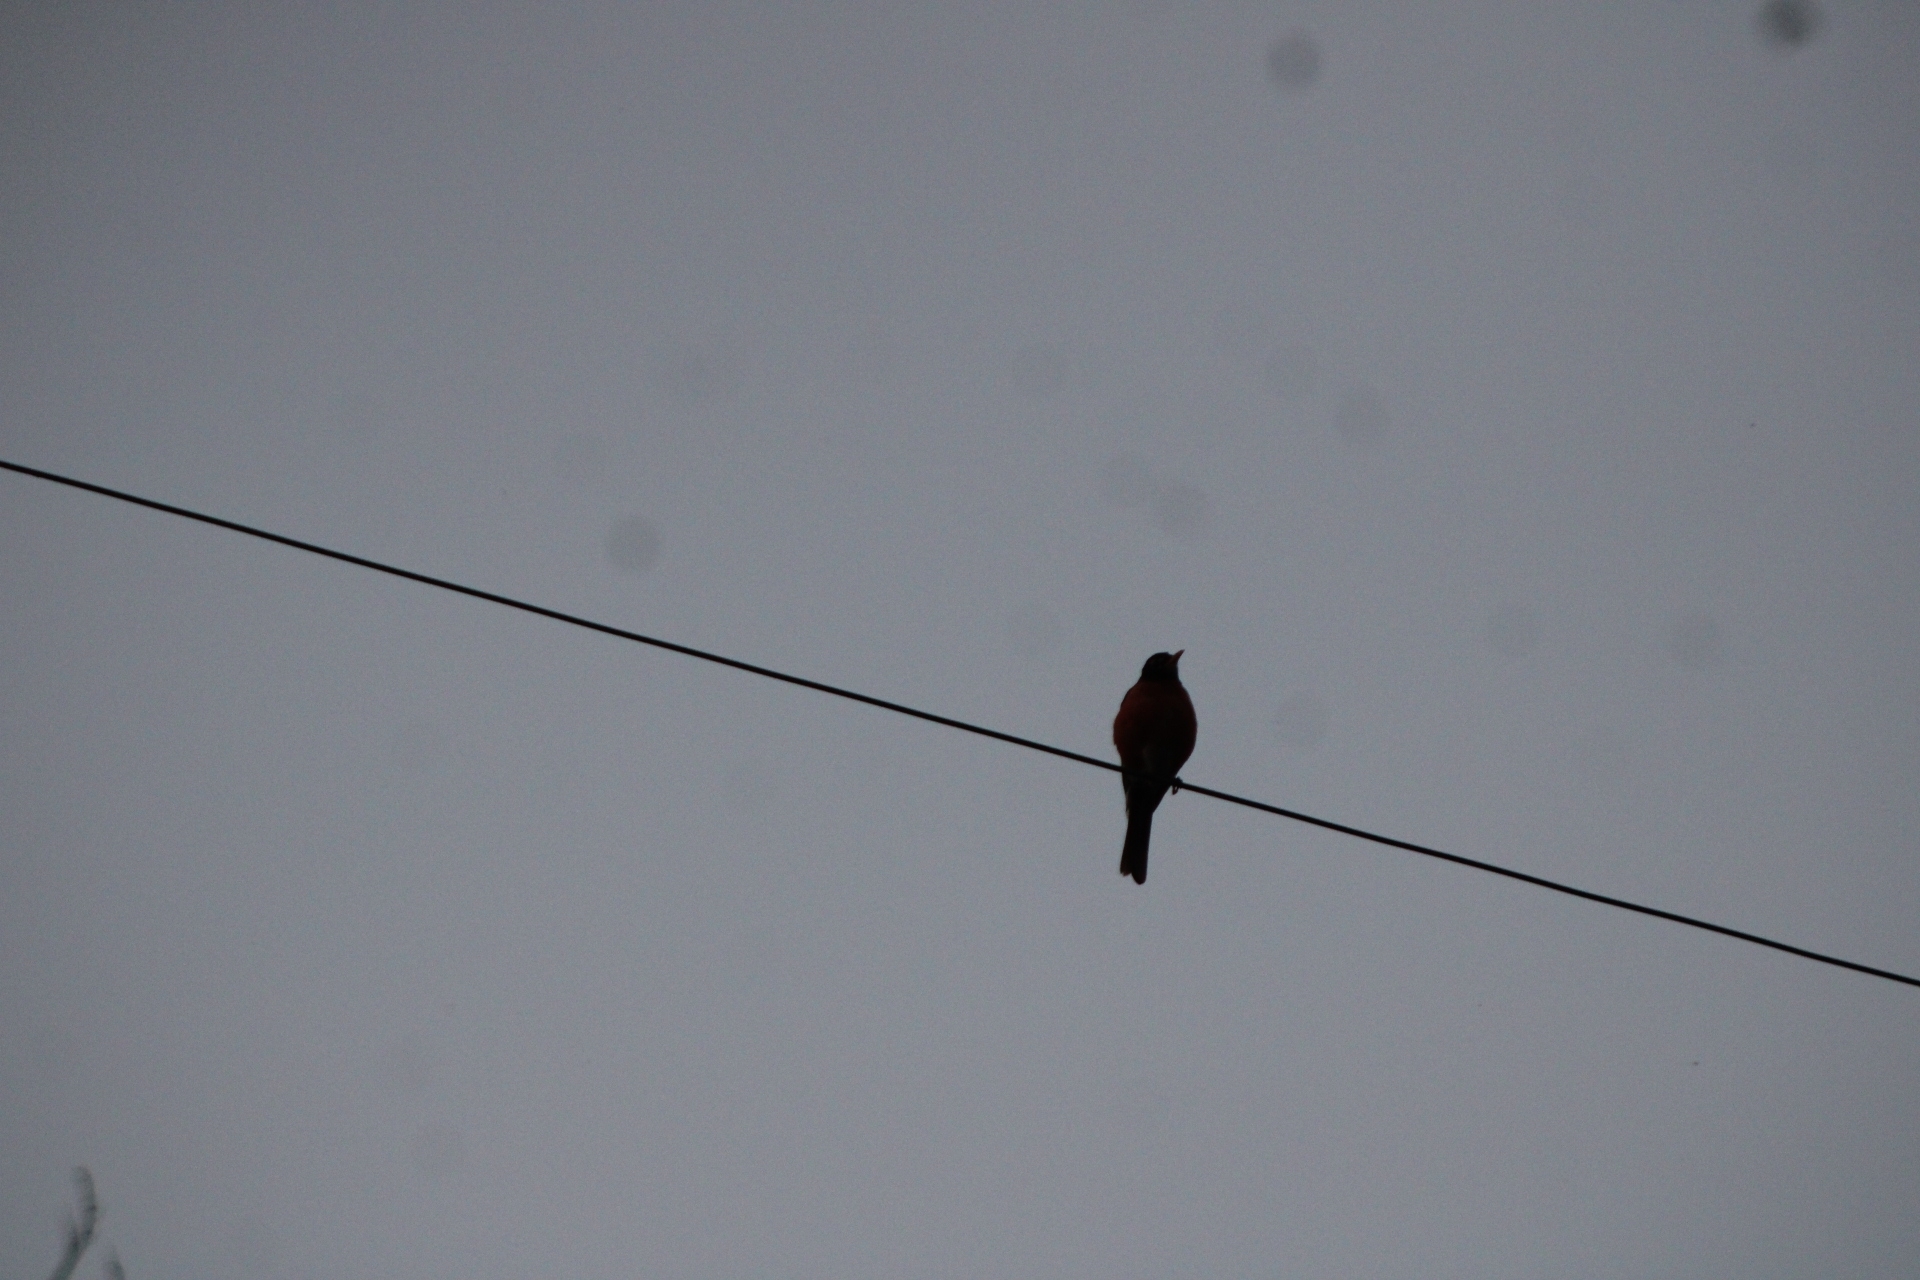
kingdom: Animalia
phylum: Chordata
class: Aves
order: Passeriformes
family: Turdidae
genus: Turdus
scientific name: Turdus migratorius
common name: American robin
